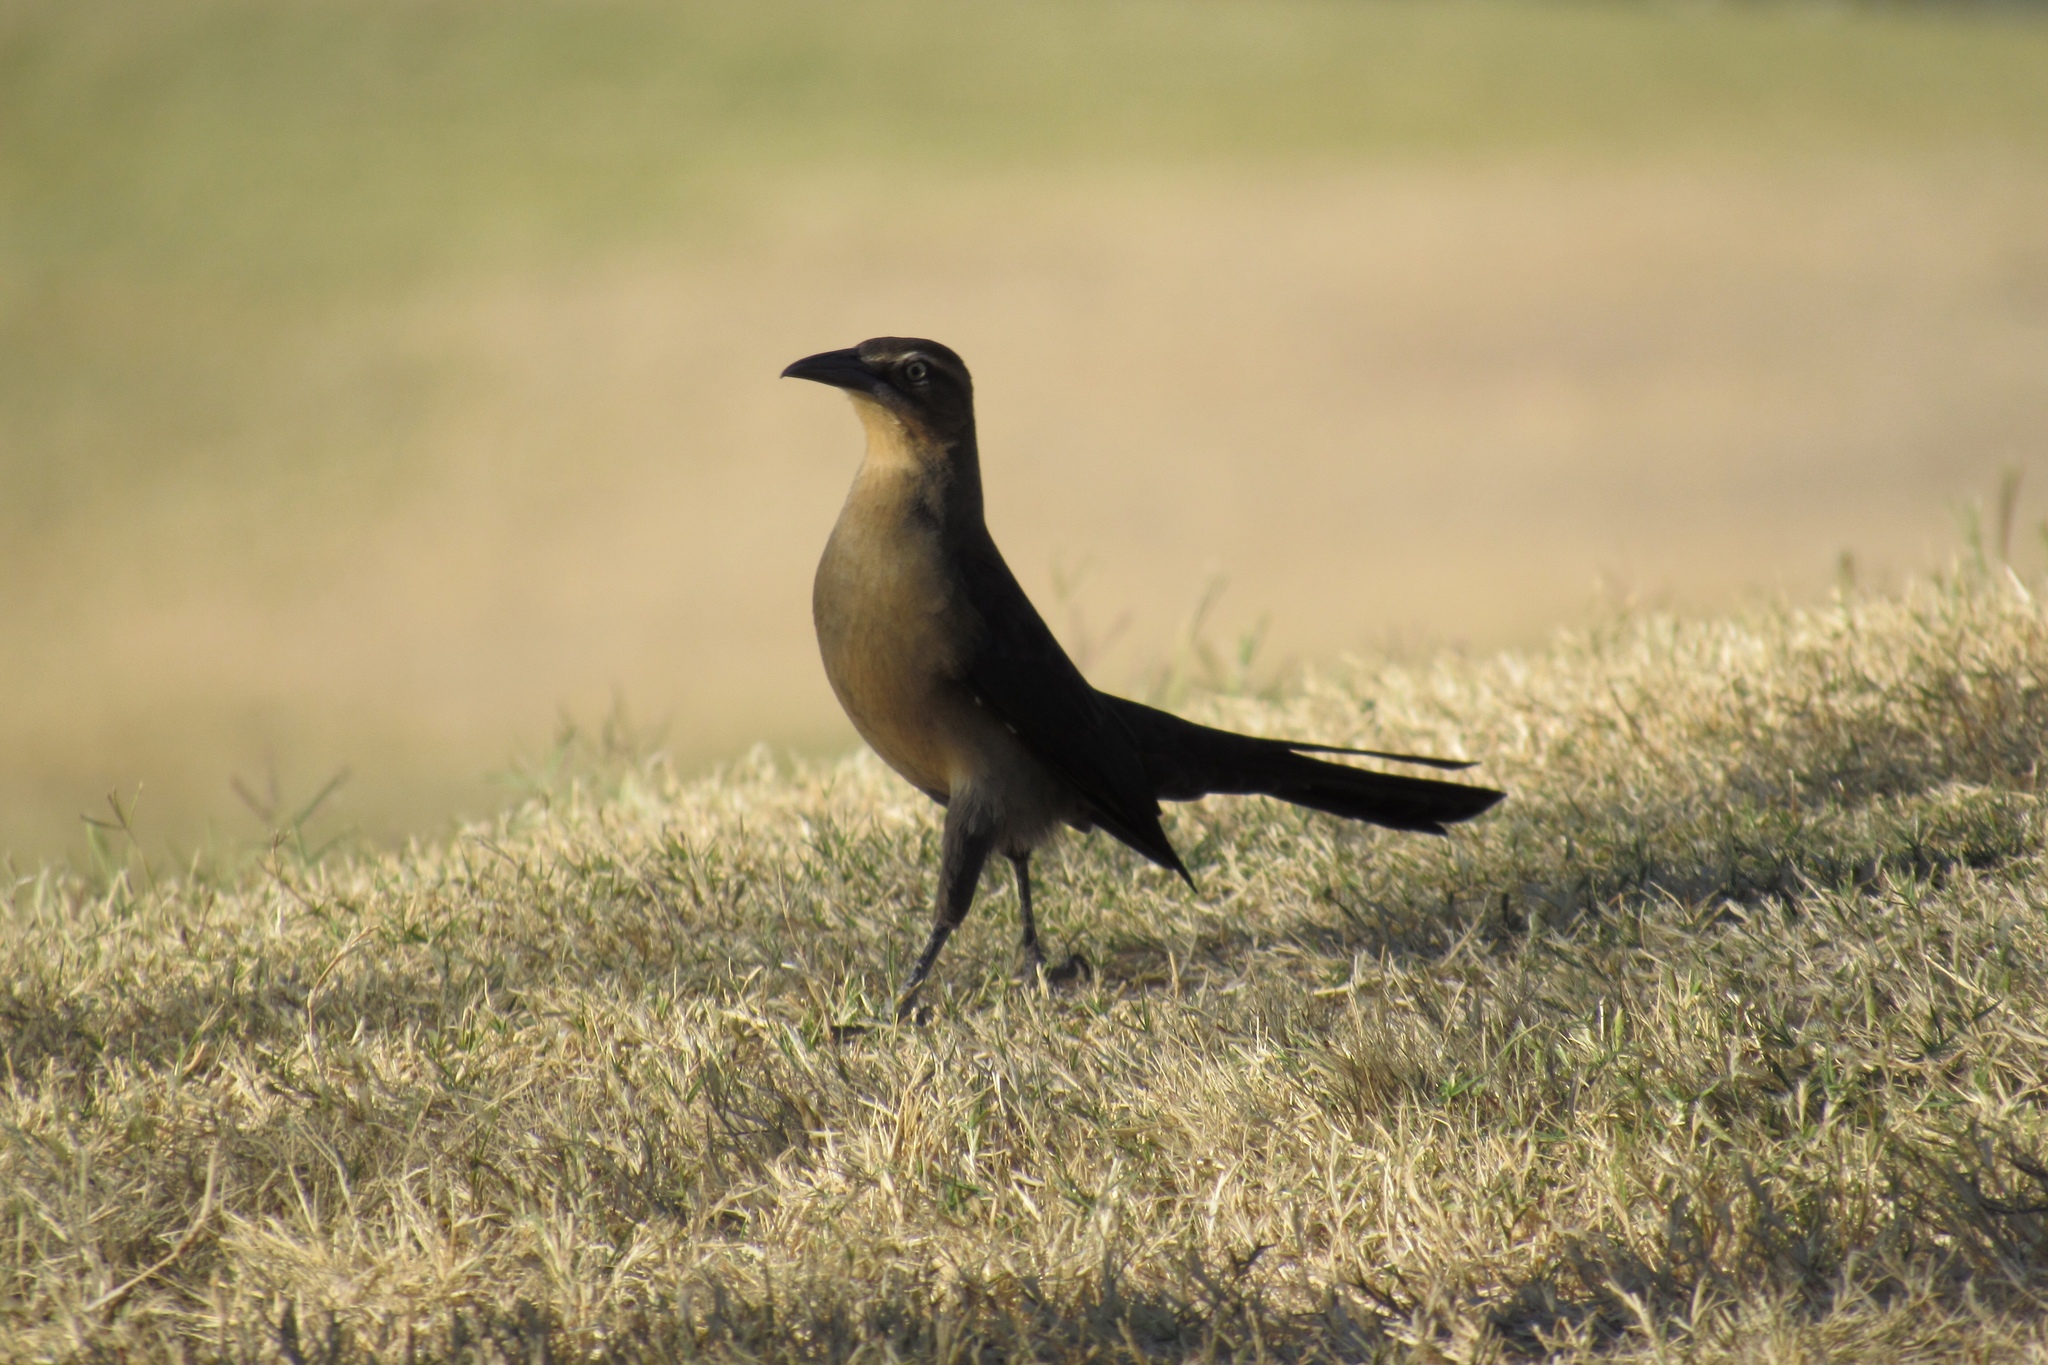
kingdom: Animalia
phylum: Chordata
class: Aves
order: Passeriformes
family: Icteridae
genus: Quiscalus
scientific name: Quiscalus mexicanus
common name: Great-tailed grackle
